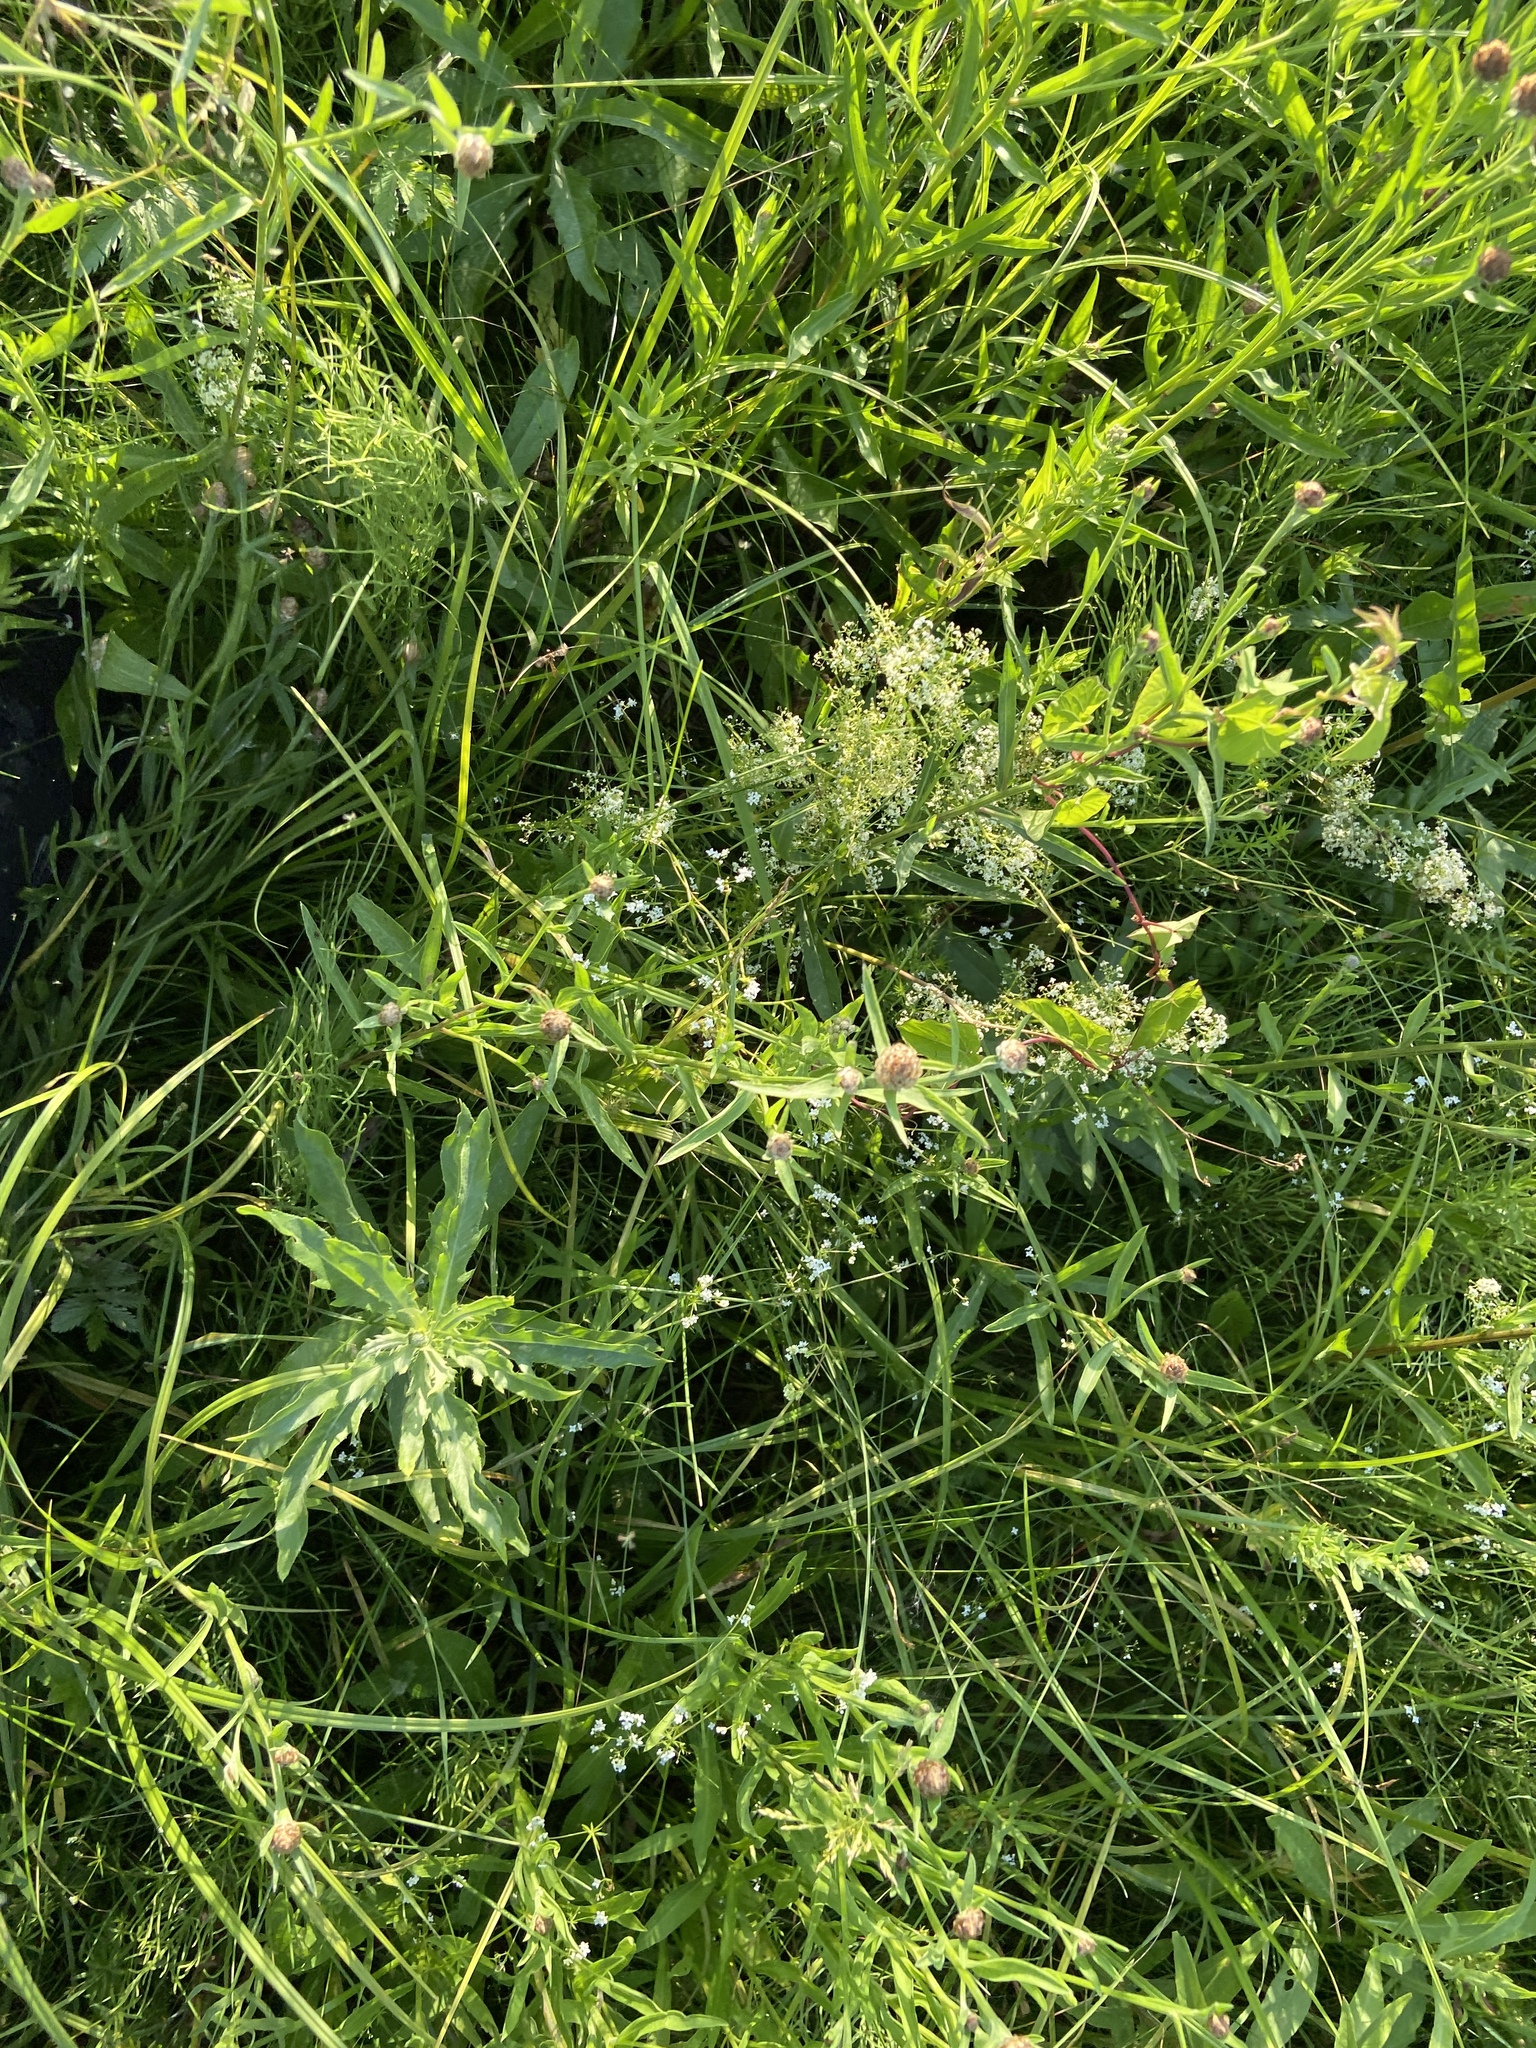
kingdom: Plantae
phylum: Tracheophyta
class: Magnoliopsida
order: Asterales
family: Asteraceae
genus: Centaurea
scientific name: Centaurea jacea
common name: Brown knapweed
